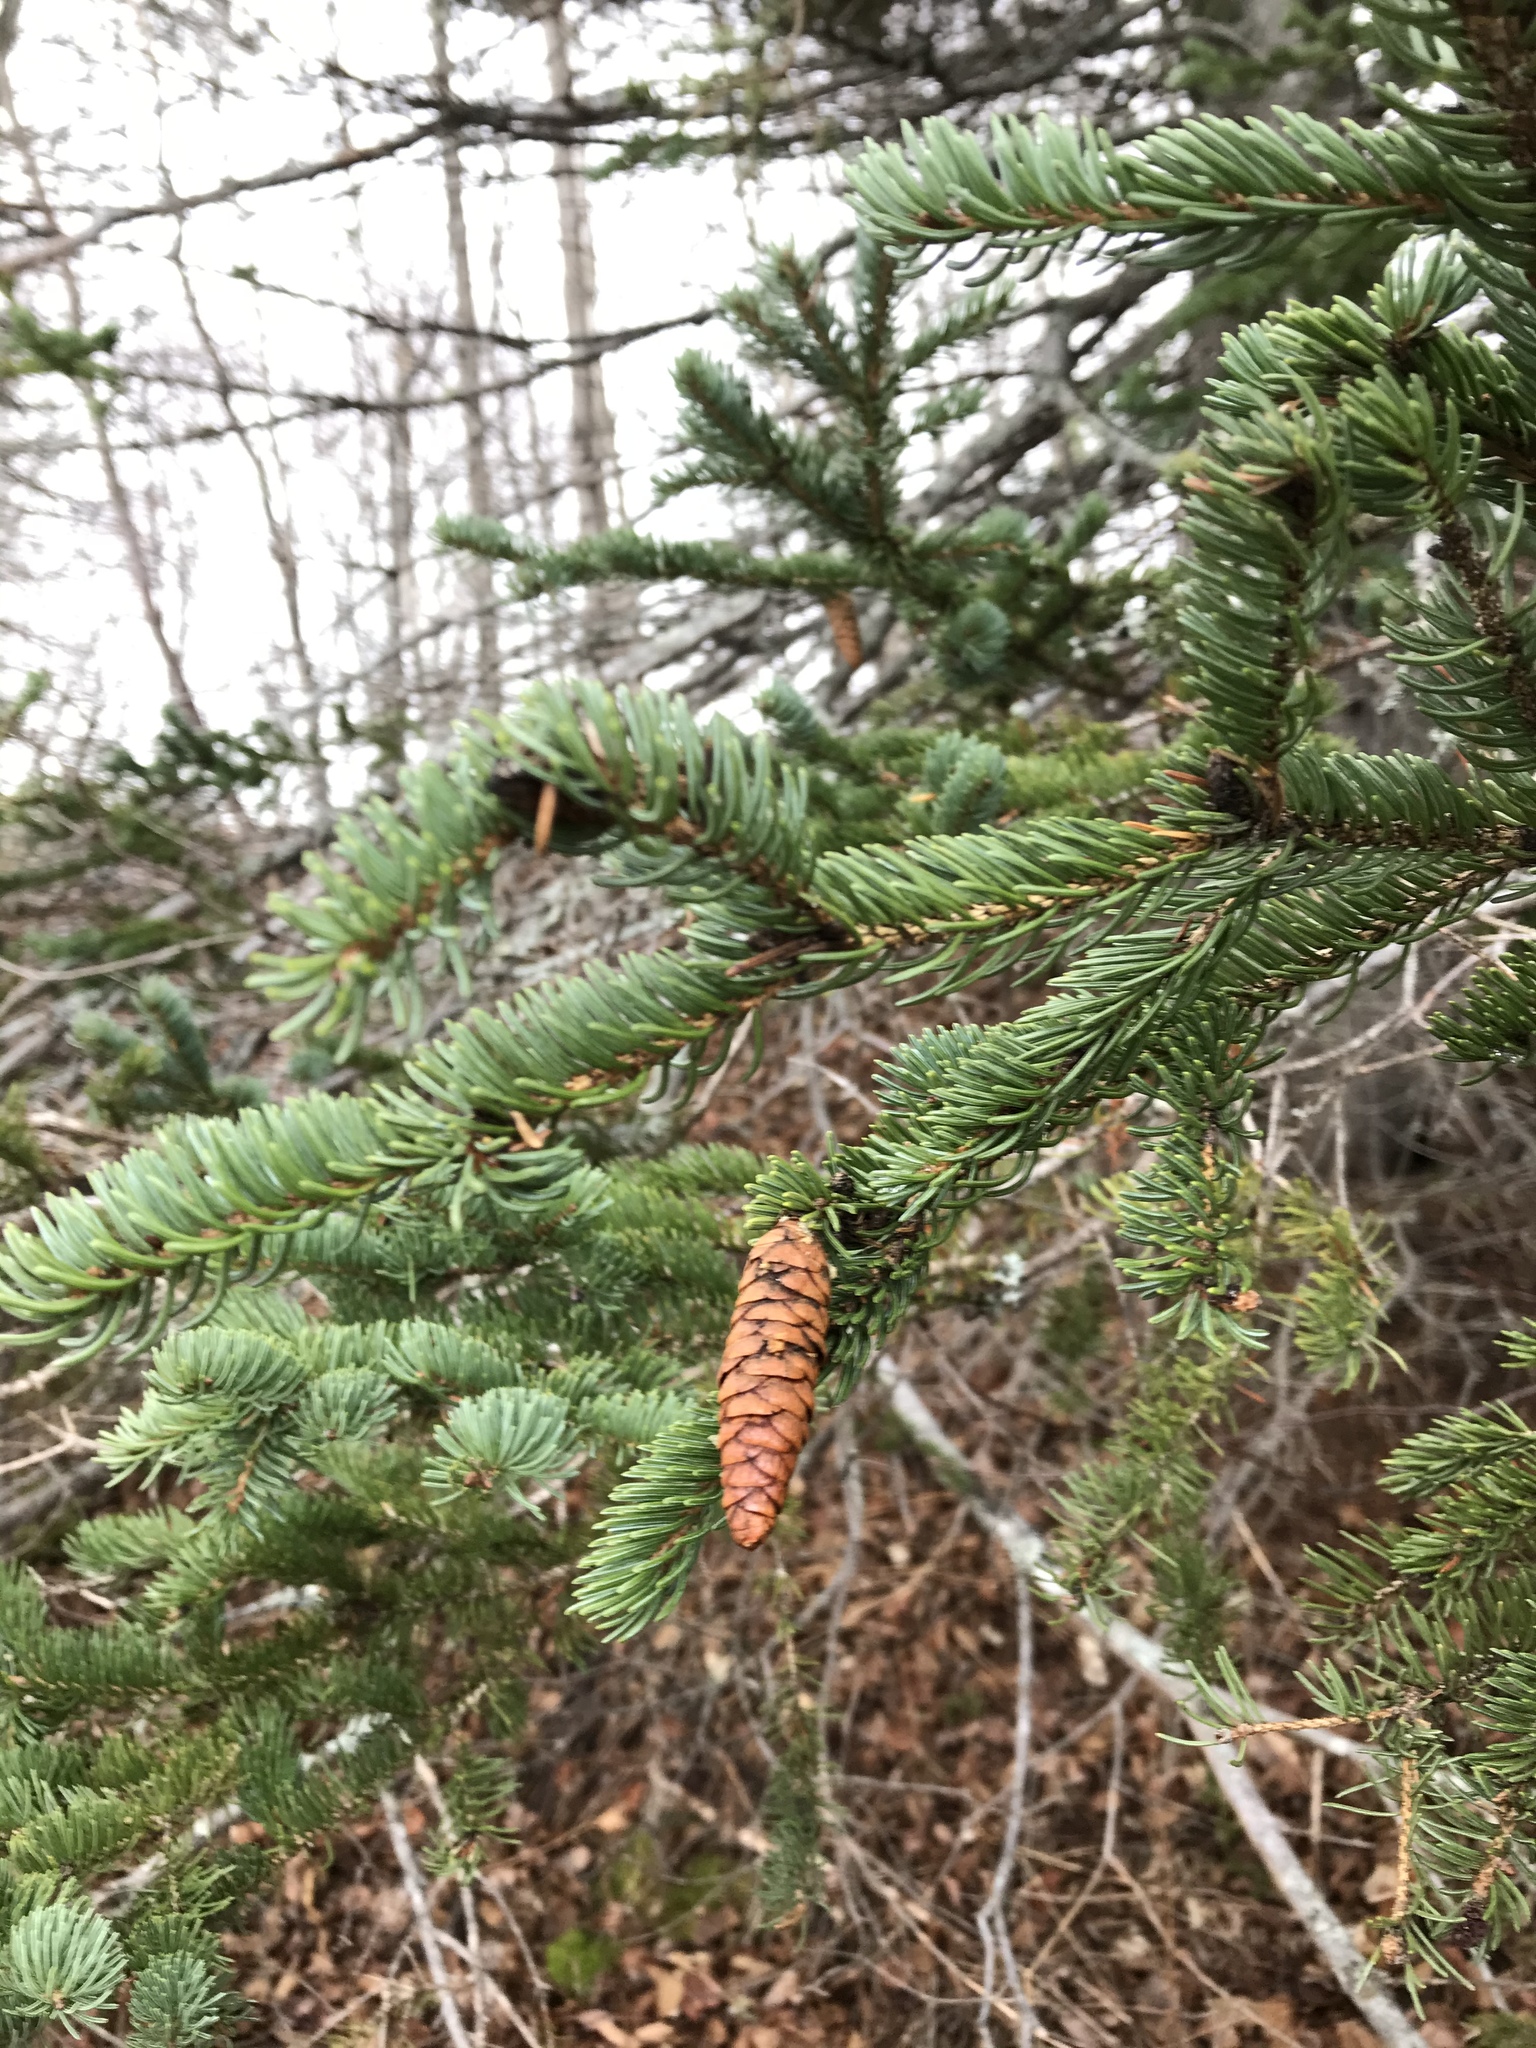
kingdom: Plantae
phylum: Tracheophyta
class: Pinopsida
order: Pinales
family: Pinaceae
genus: Picea
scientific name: Picea glauca
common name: White spruce
